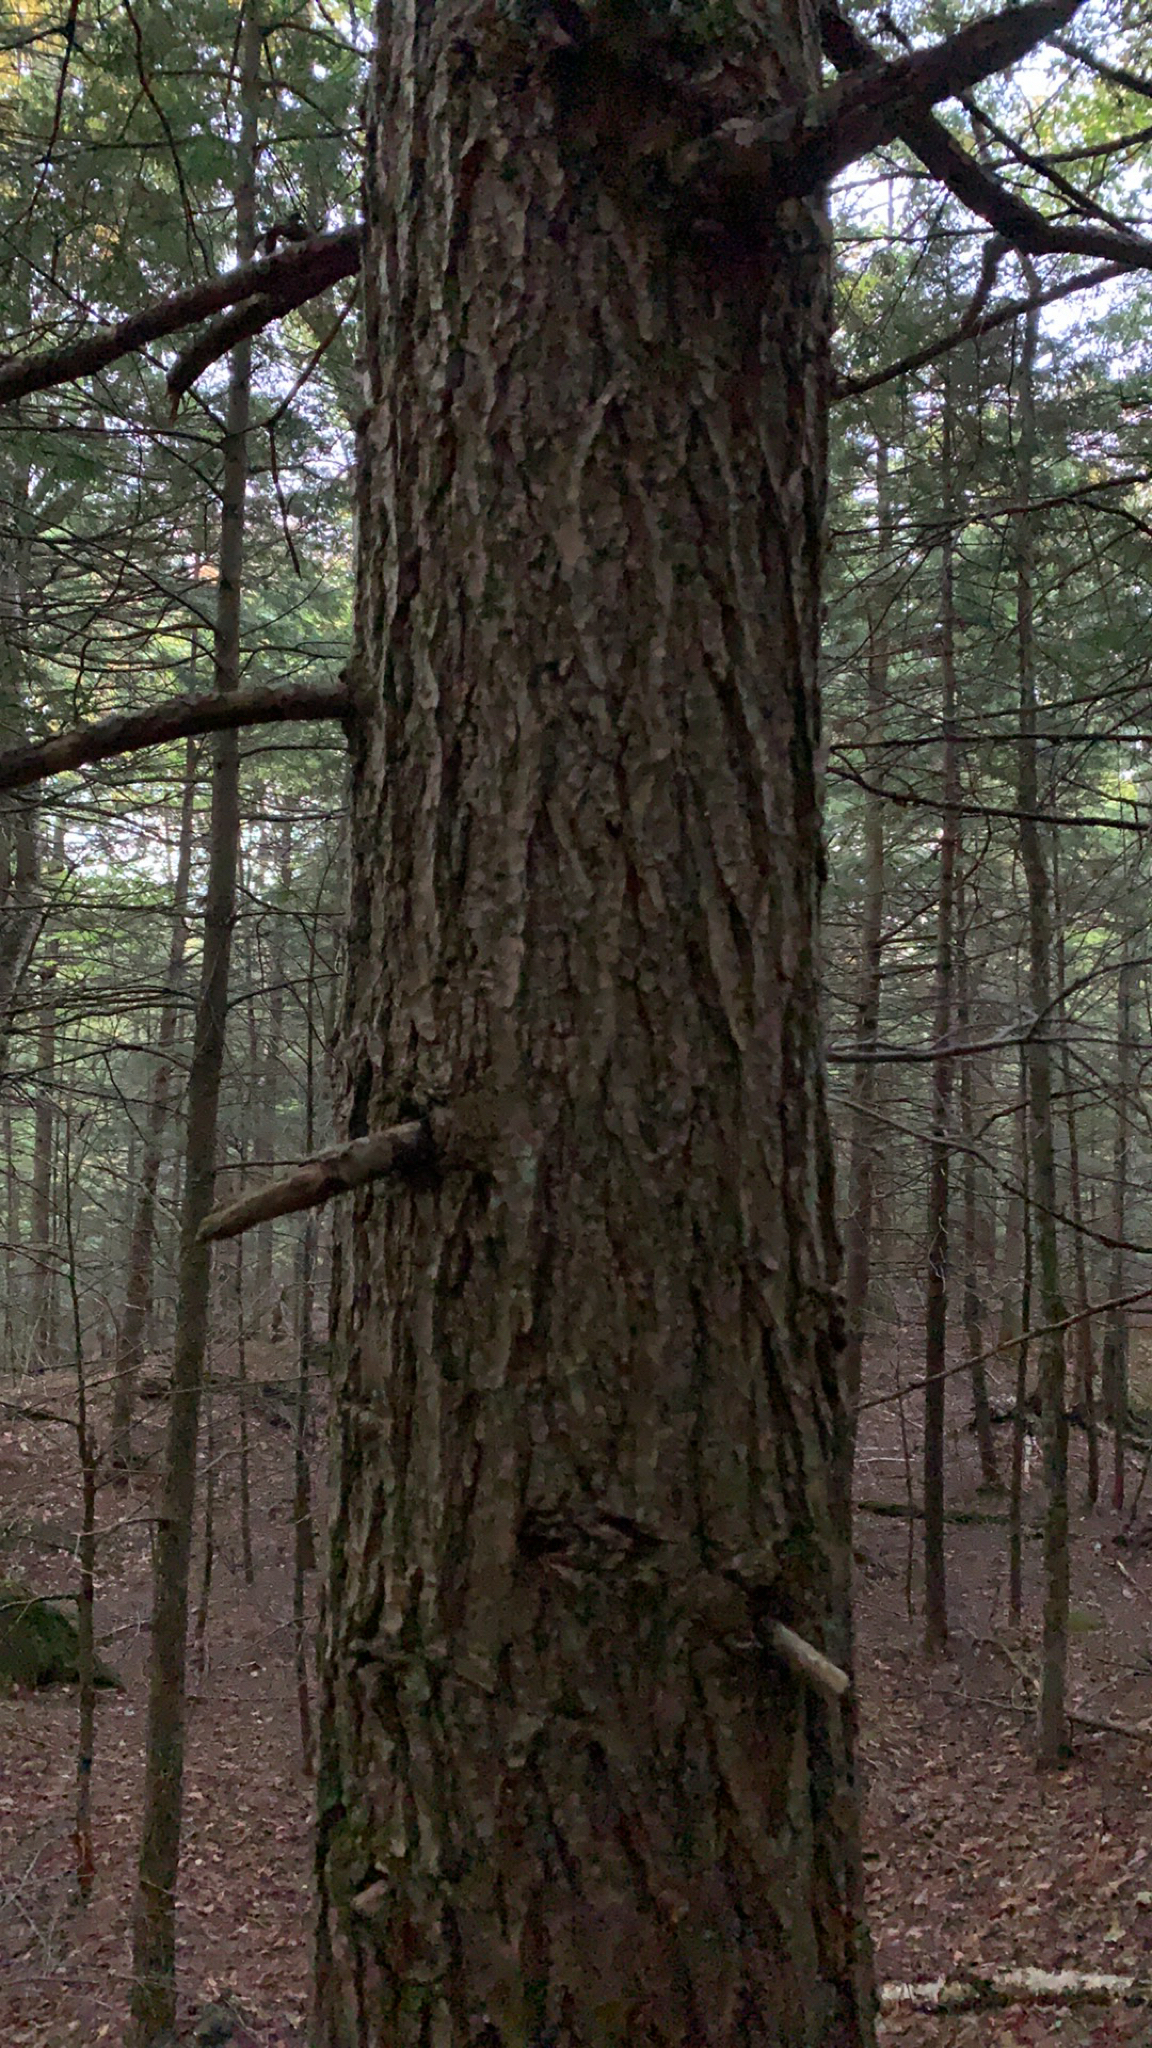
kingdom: Plantae
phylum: Tracheophyta
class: Pinopsida
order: Pinales
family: Pinaceae
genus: Tsuga
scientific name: Tsuga canadensis
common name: Eastern hemlock
